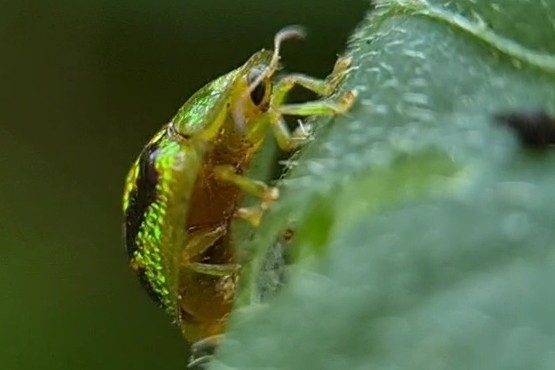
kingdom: Animalia
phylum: Arthropoda
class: Insecta
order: Coleoptera
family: Chrysomelidae
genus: Cassida
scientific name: Cassida diomma
